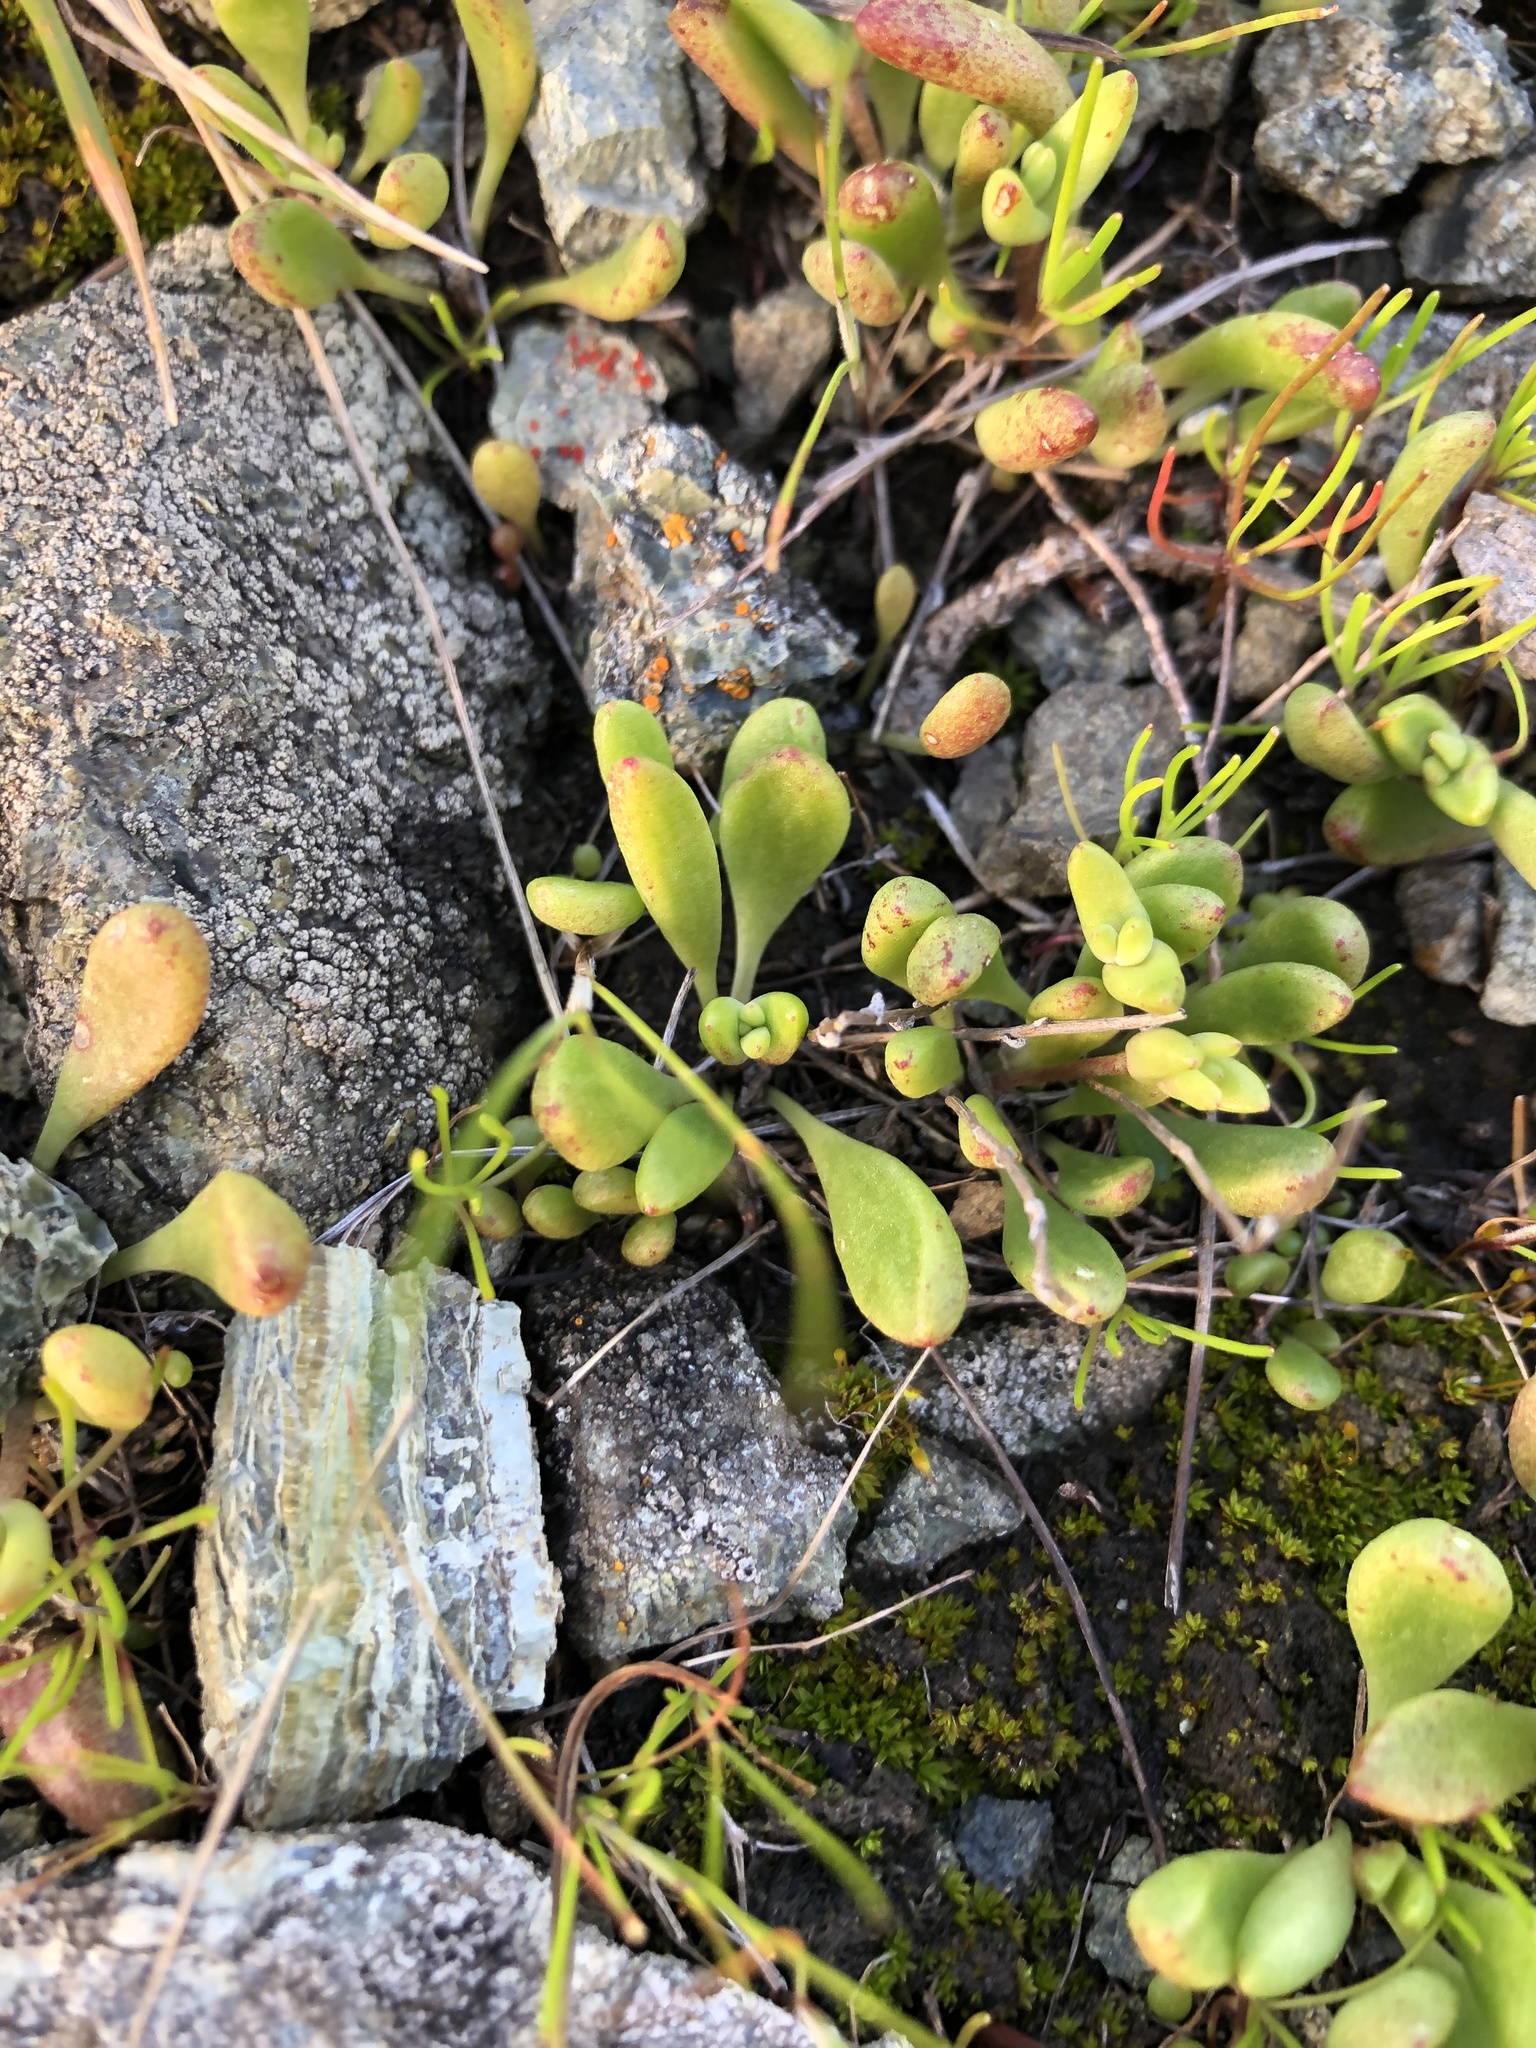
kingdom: Plantae
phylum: Tracheophyta
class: Magnoliopsida
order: Saxifragales
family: Crassulaceae
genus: Dudleya
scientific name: Dudleya blochmaniae
